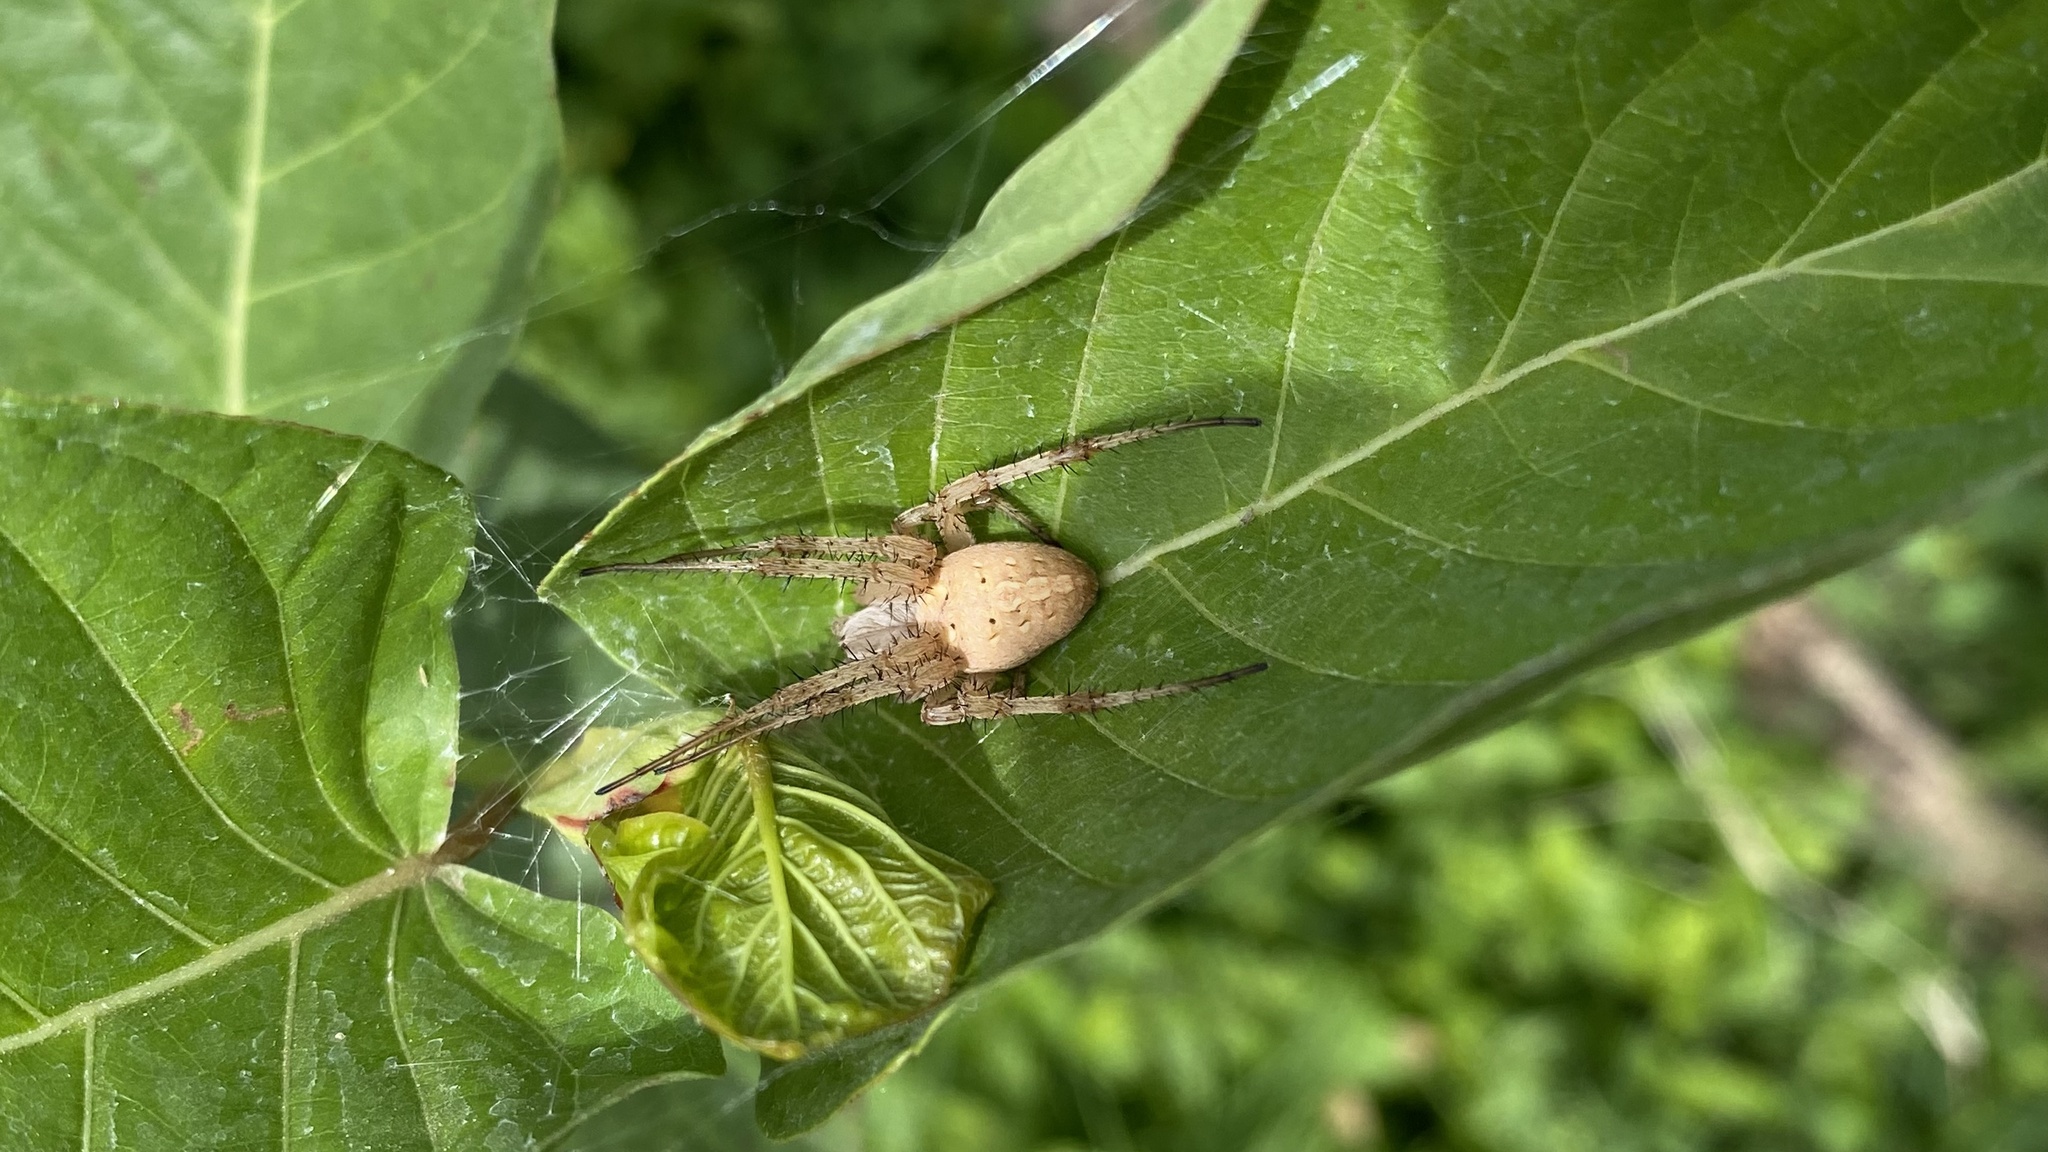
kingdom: Animalia
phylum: Arthropoda
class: Arachnida
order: Araneae
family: Araneidae
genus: Neoscona
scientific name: Neoscona oaxacensis
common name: Orb weavers
